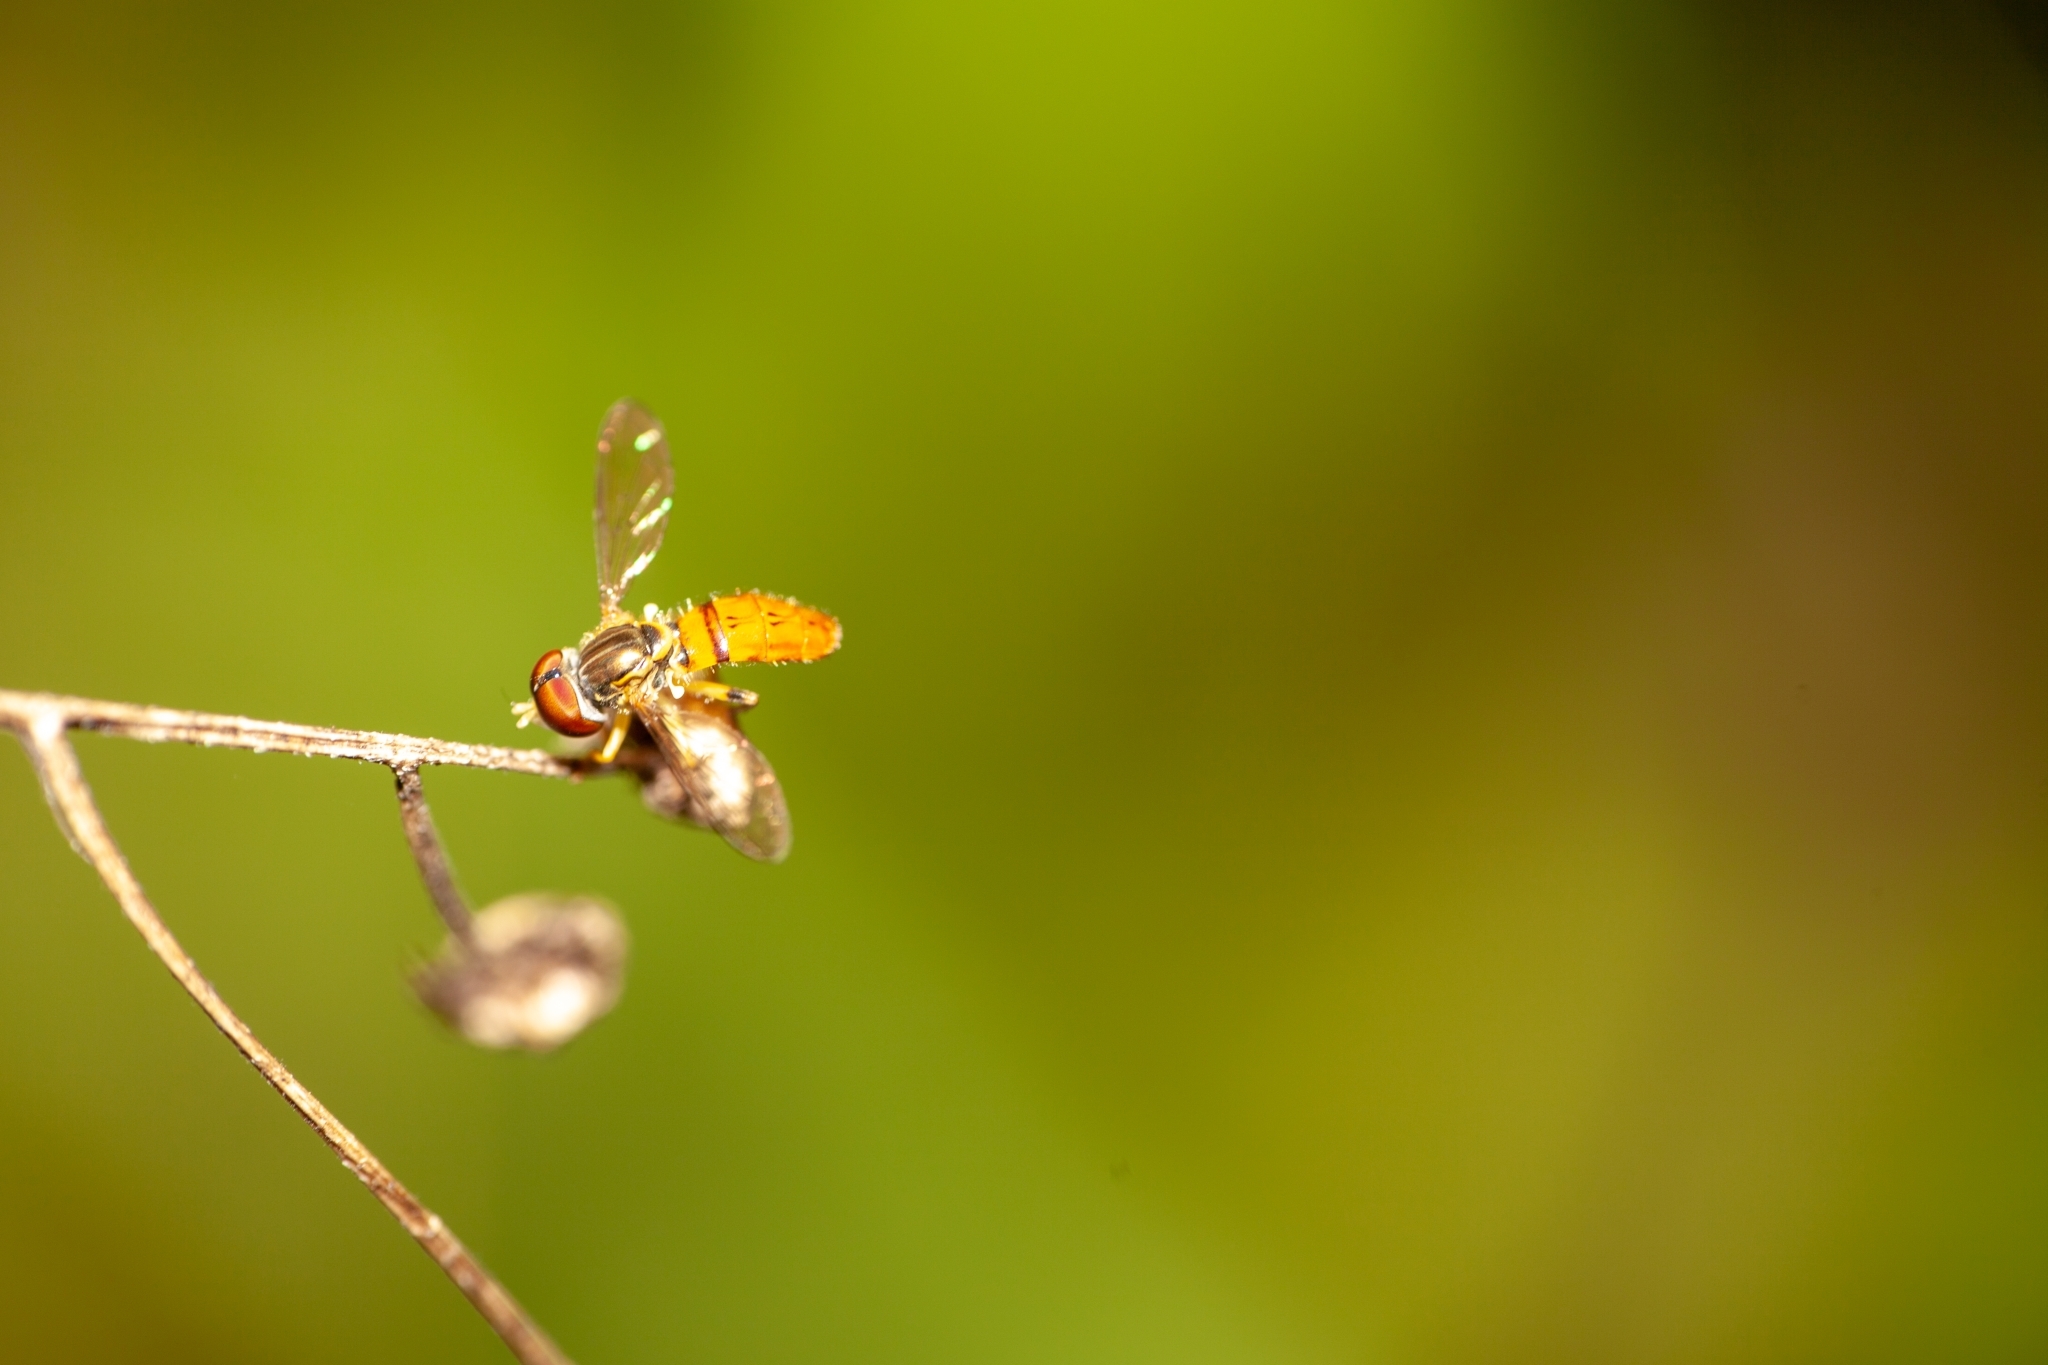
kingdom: Animalia
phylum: Arthropoda
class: Insecta
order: Diptera
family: Syrphidae
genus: Toxomerus
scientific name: Toxomerus boscii
